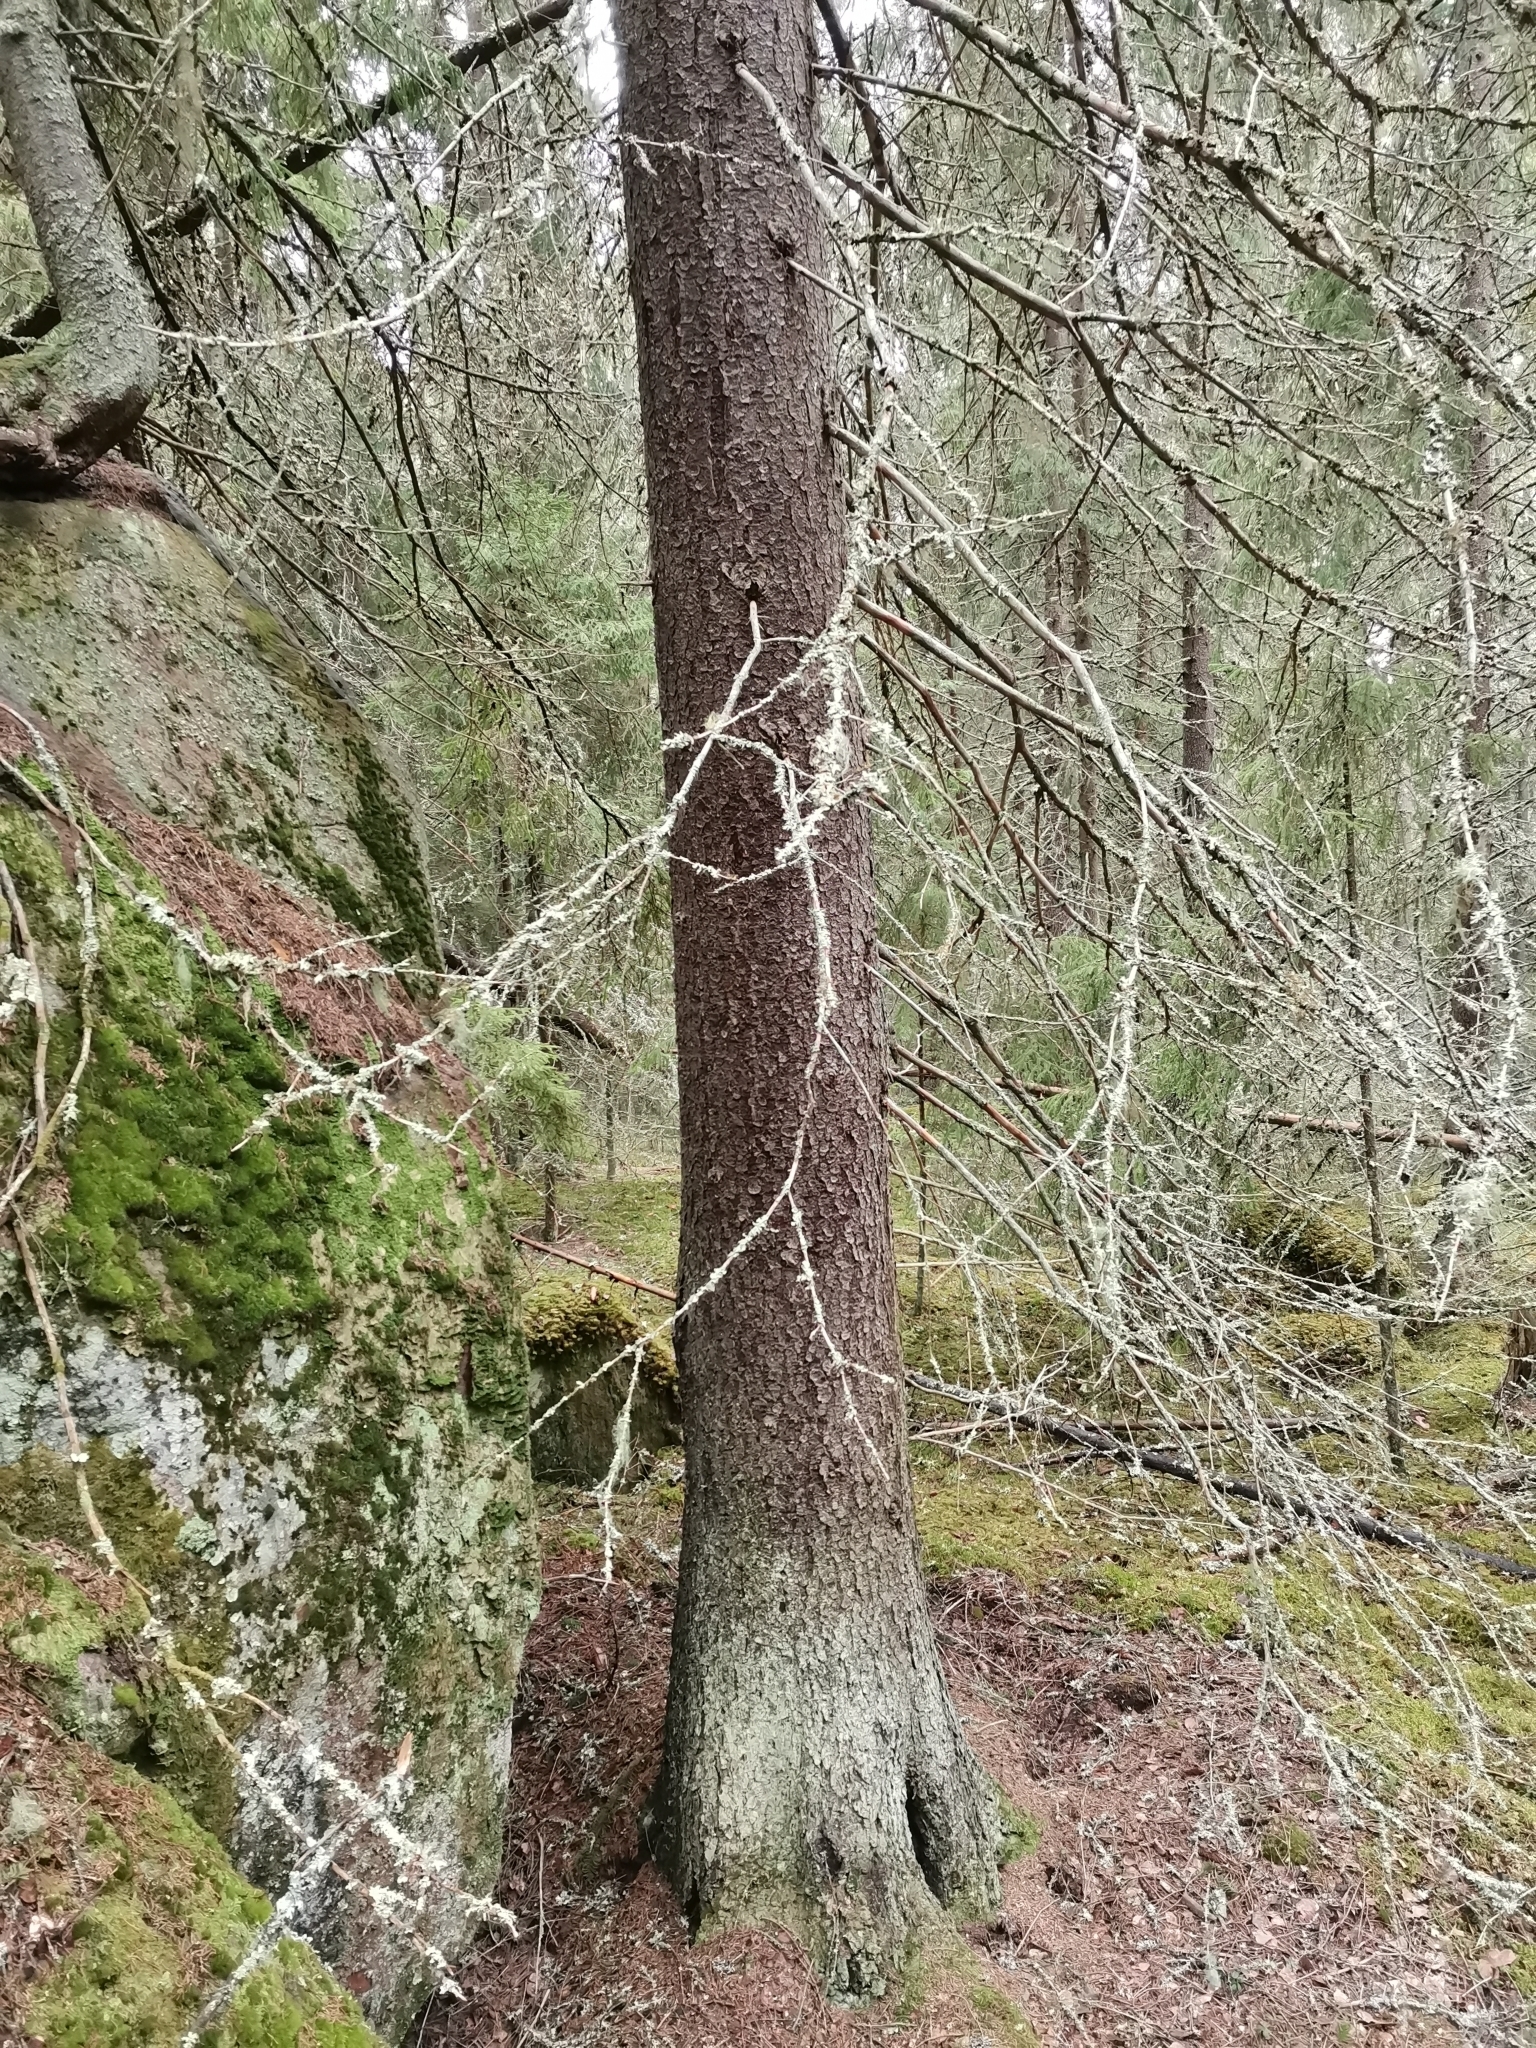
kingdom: Animalia
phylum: Chordata
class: Mammalia
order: Rodentia
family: Sciuridae
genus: Pteromys
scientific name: Pteromys volans
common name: Siberian flying squirrel
